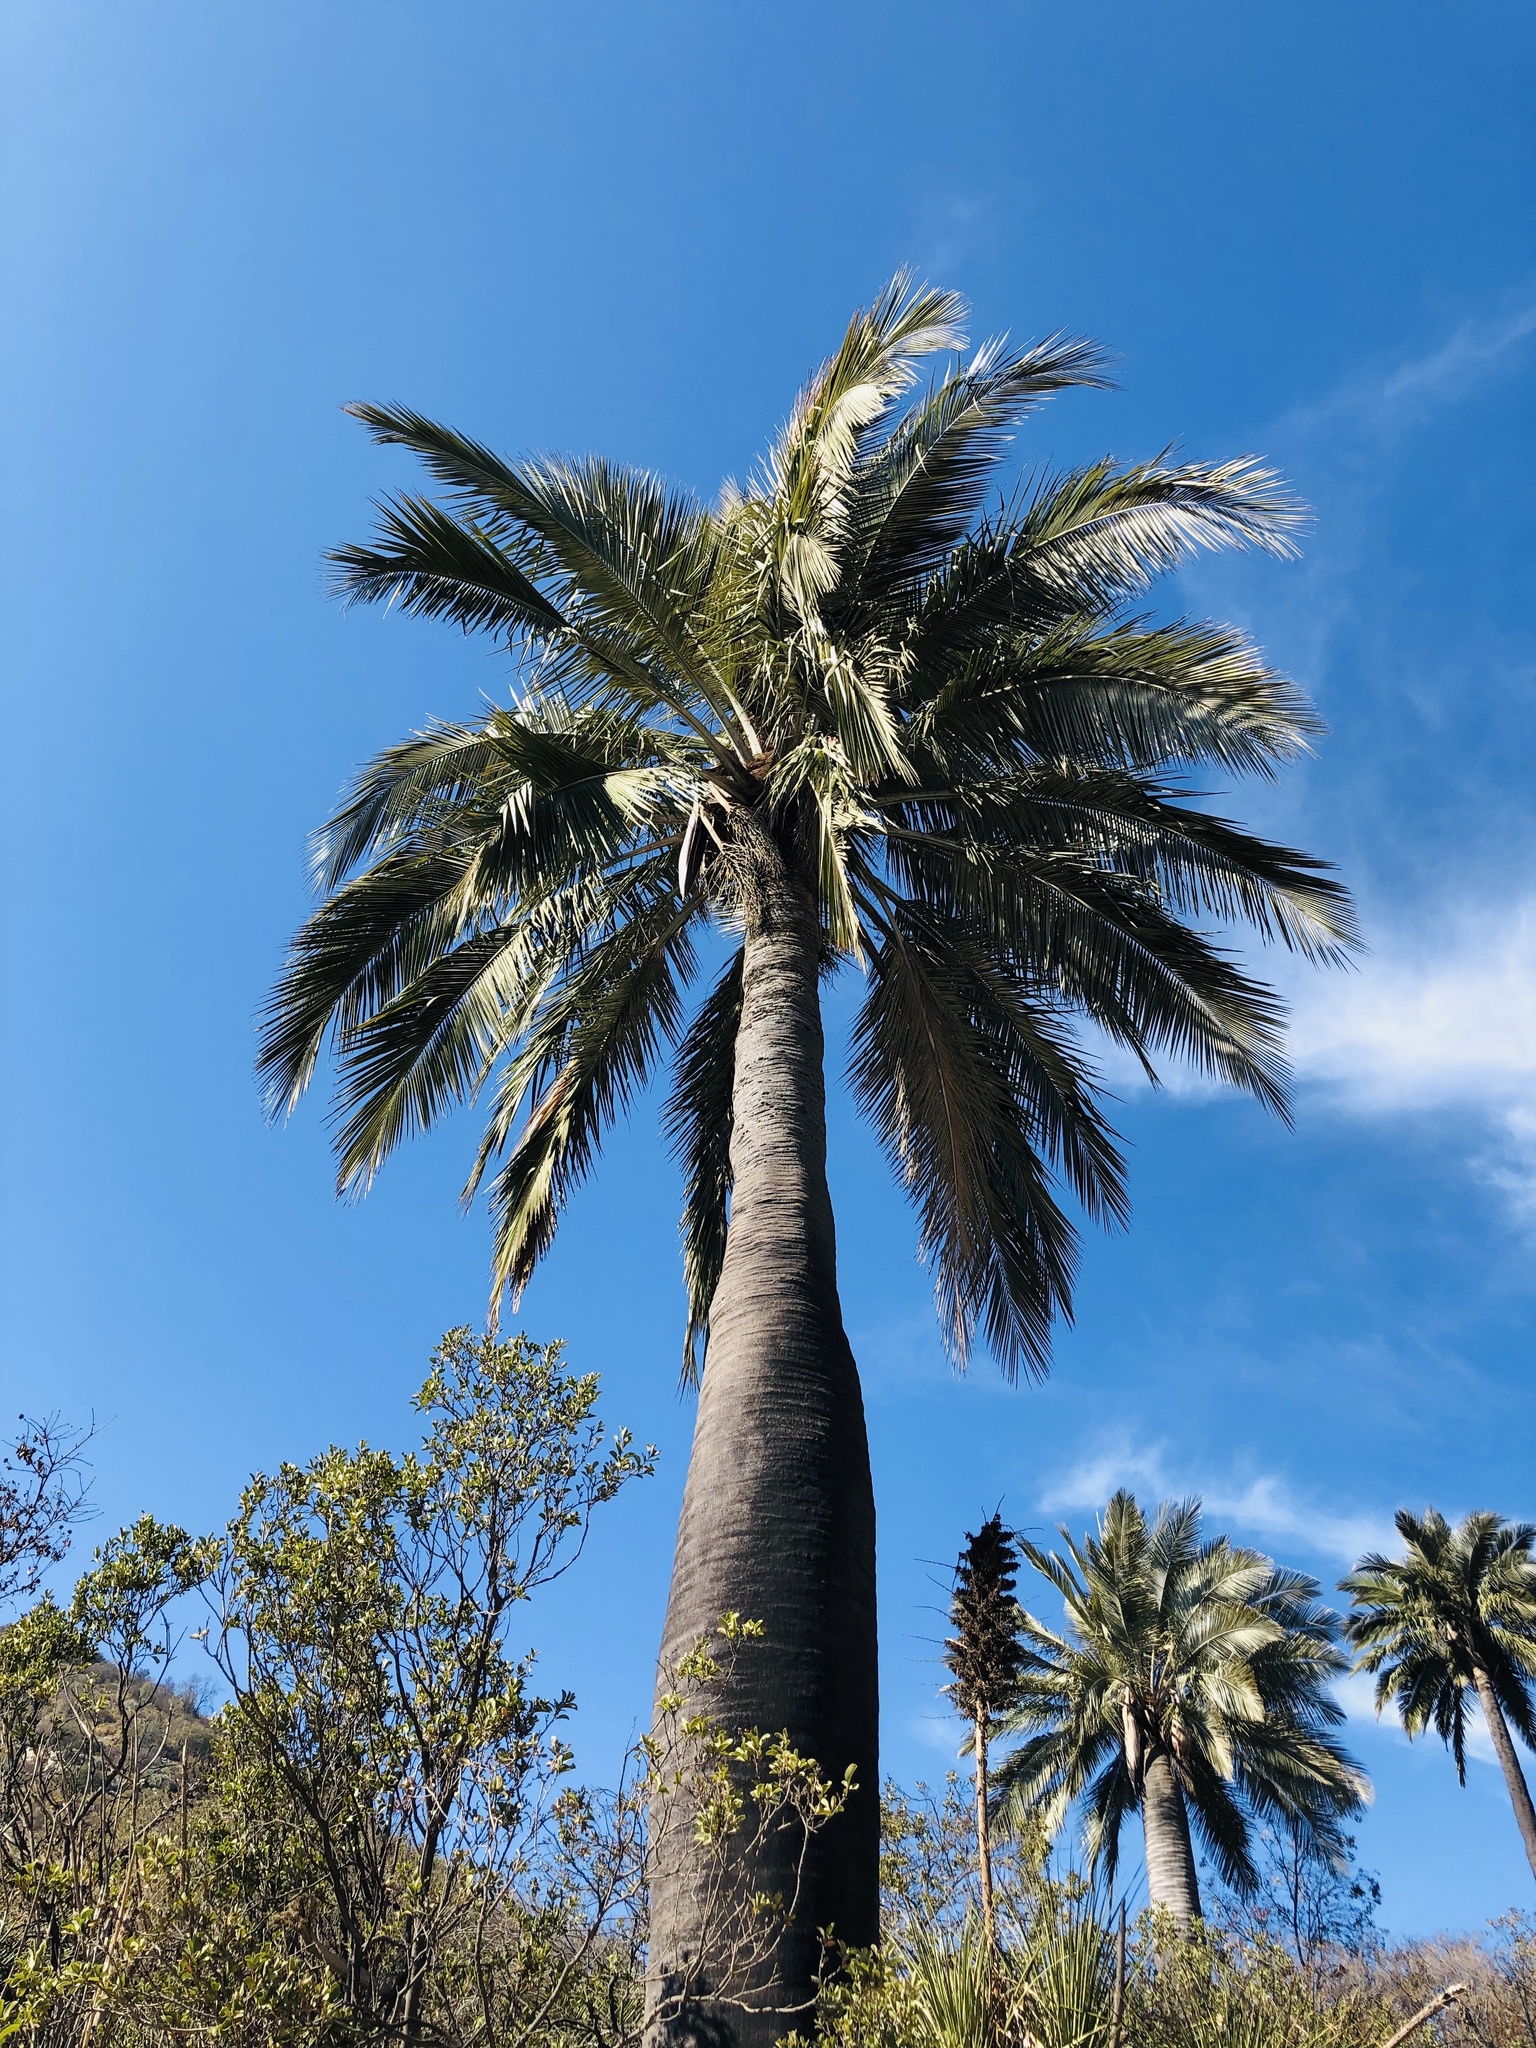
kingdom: Plantae
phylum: Tracheophyta
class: Liliopsida
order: Arecales
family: Arecaceae
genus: Jubaea
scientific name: Jubaea chilensis
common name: Coquito palm
